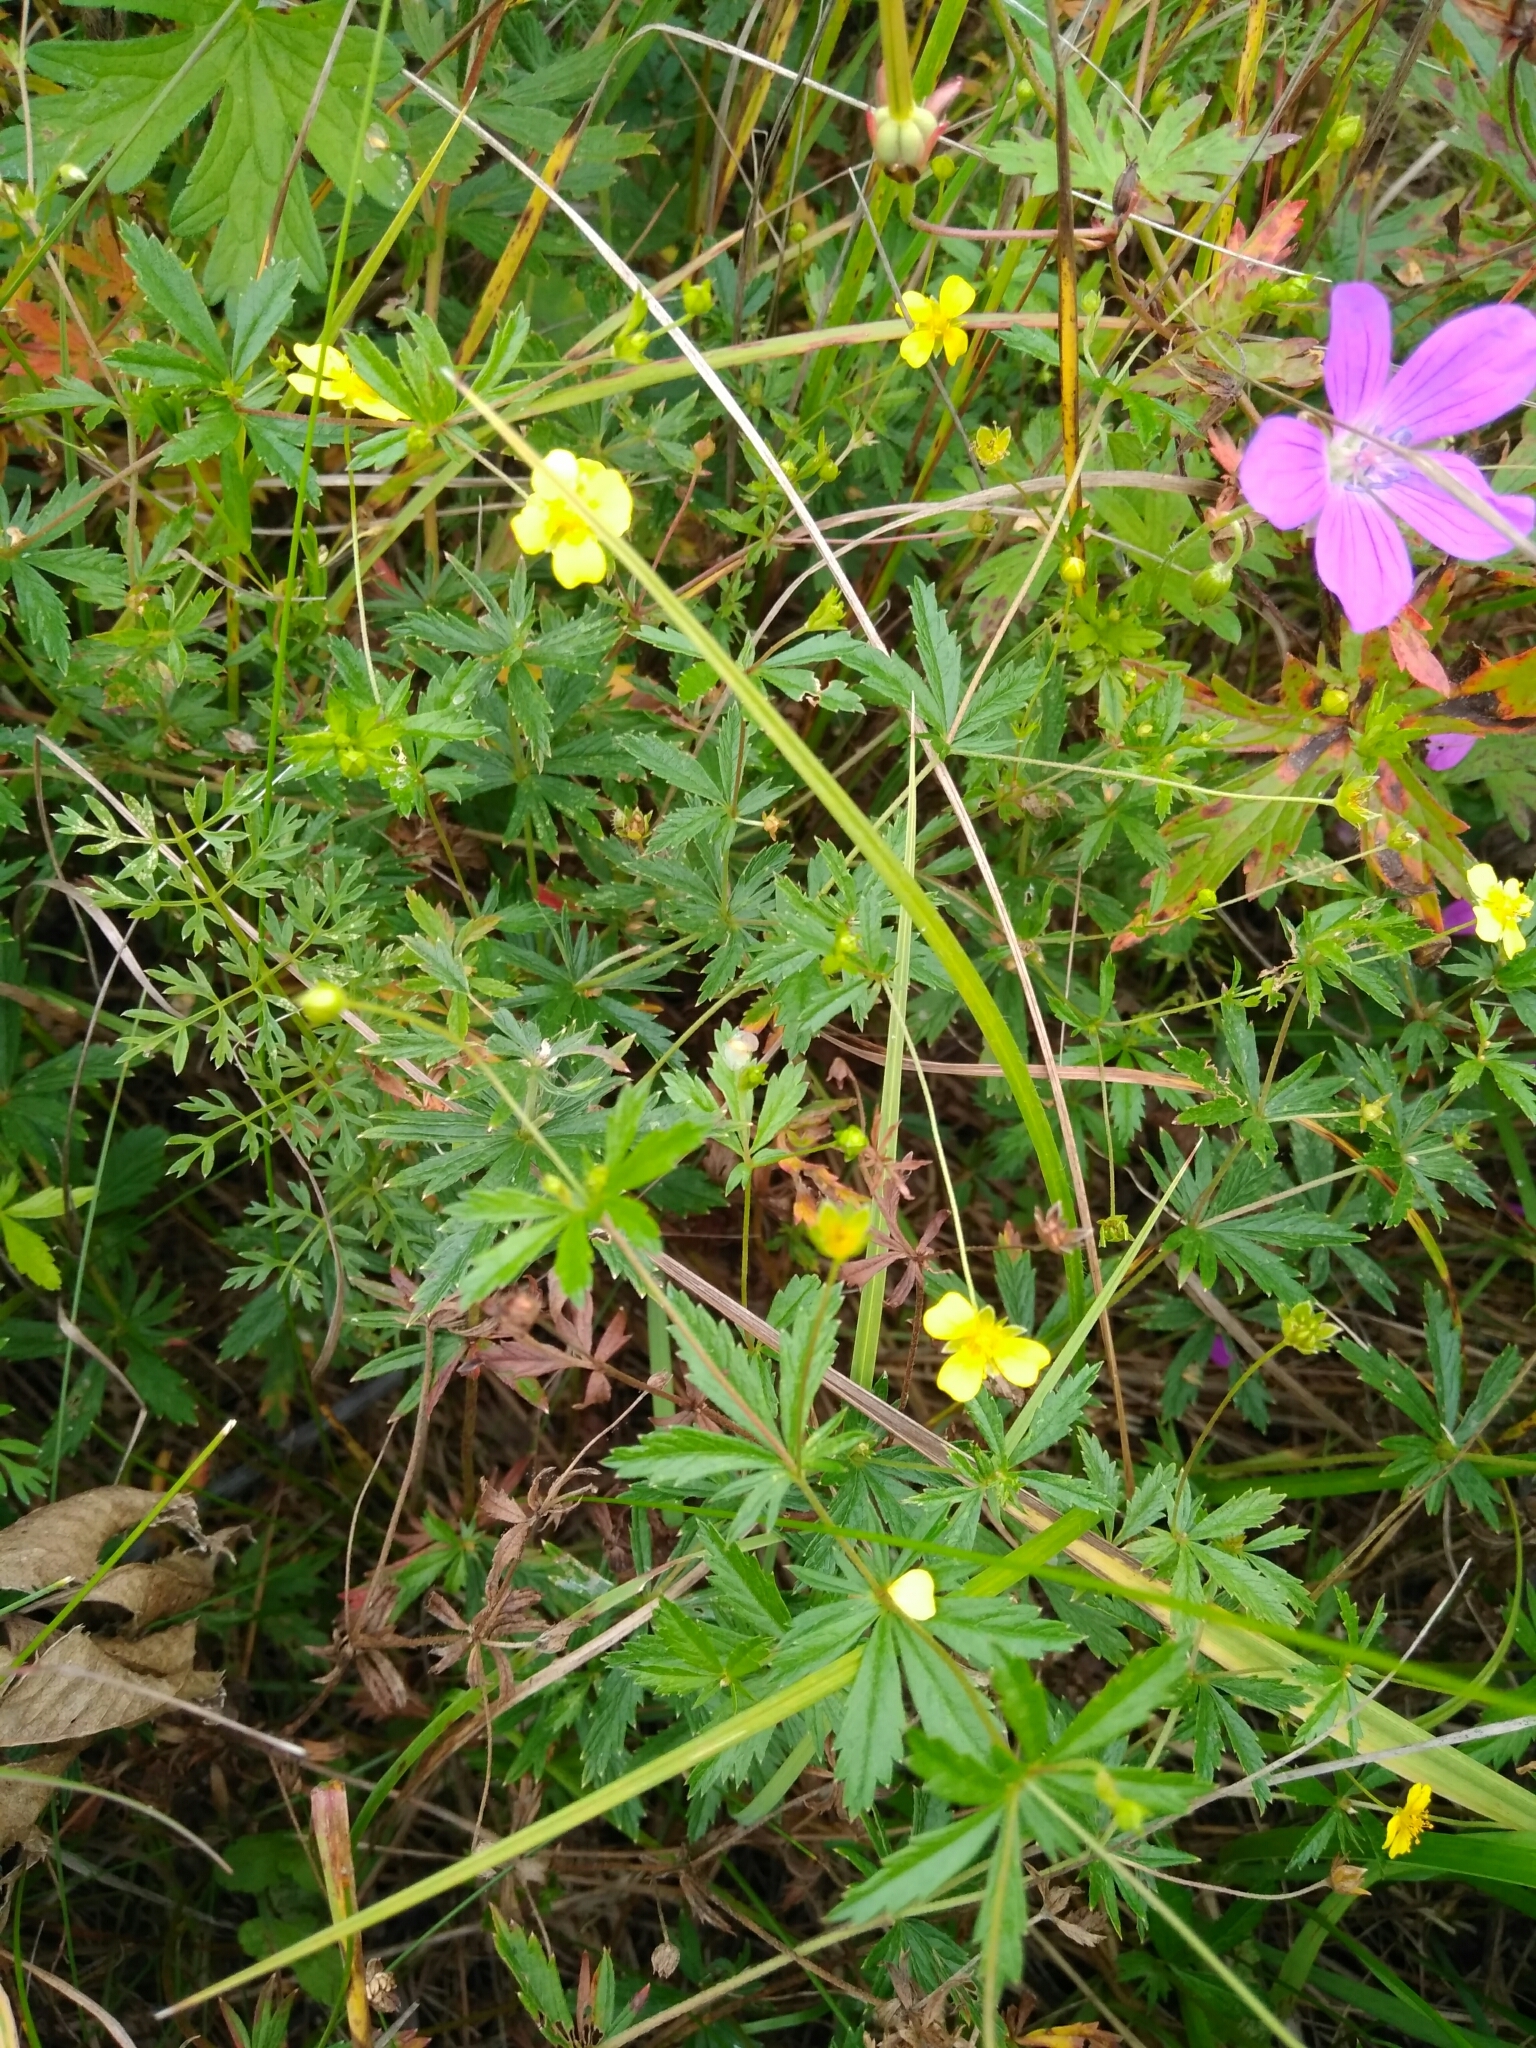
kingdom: Plantae
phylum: Tracheophyta
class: Magnoliopsida
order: Rosales
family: Rosaceae
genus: Potentilla
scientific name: Potentilla erecta
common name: Tormentil
